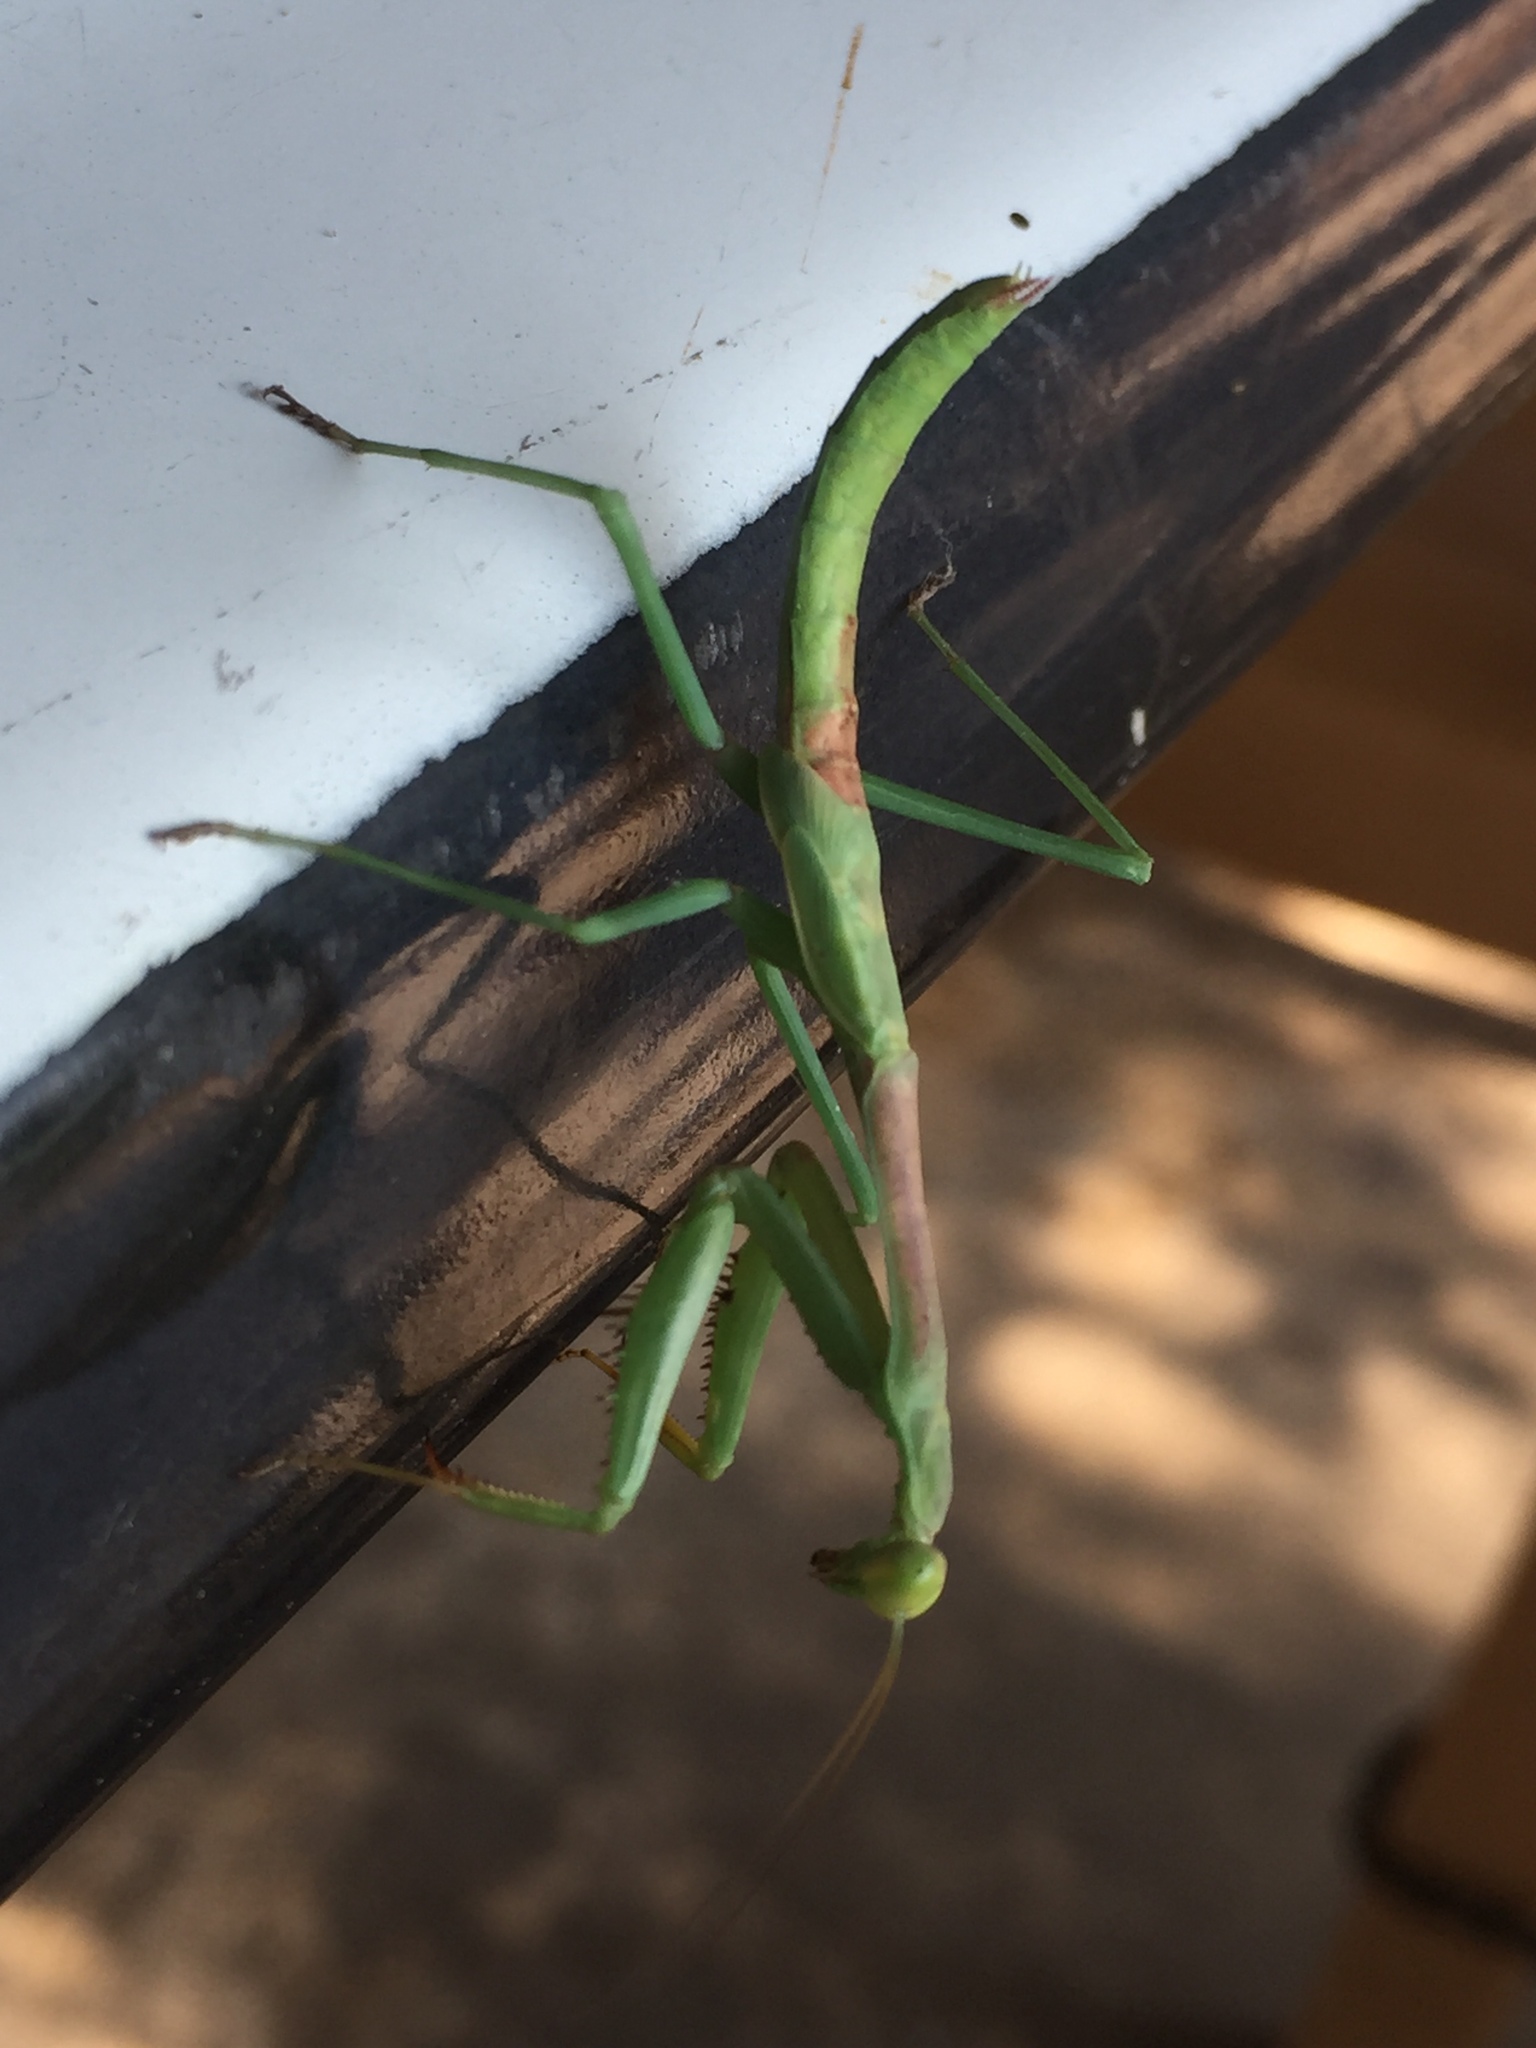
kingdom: Animalia
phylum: Arthropoda
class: Insecta
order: Mantodea
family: Mantidae
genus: Stagmomantis
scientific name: Stagmomantis carolina
